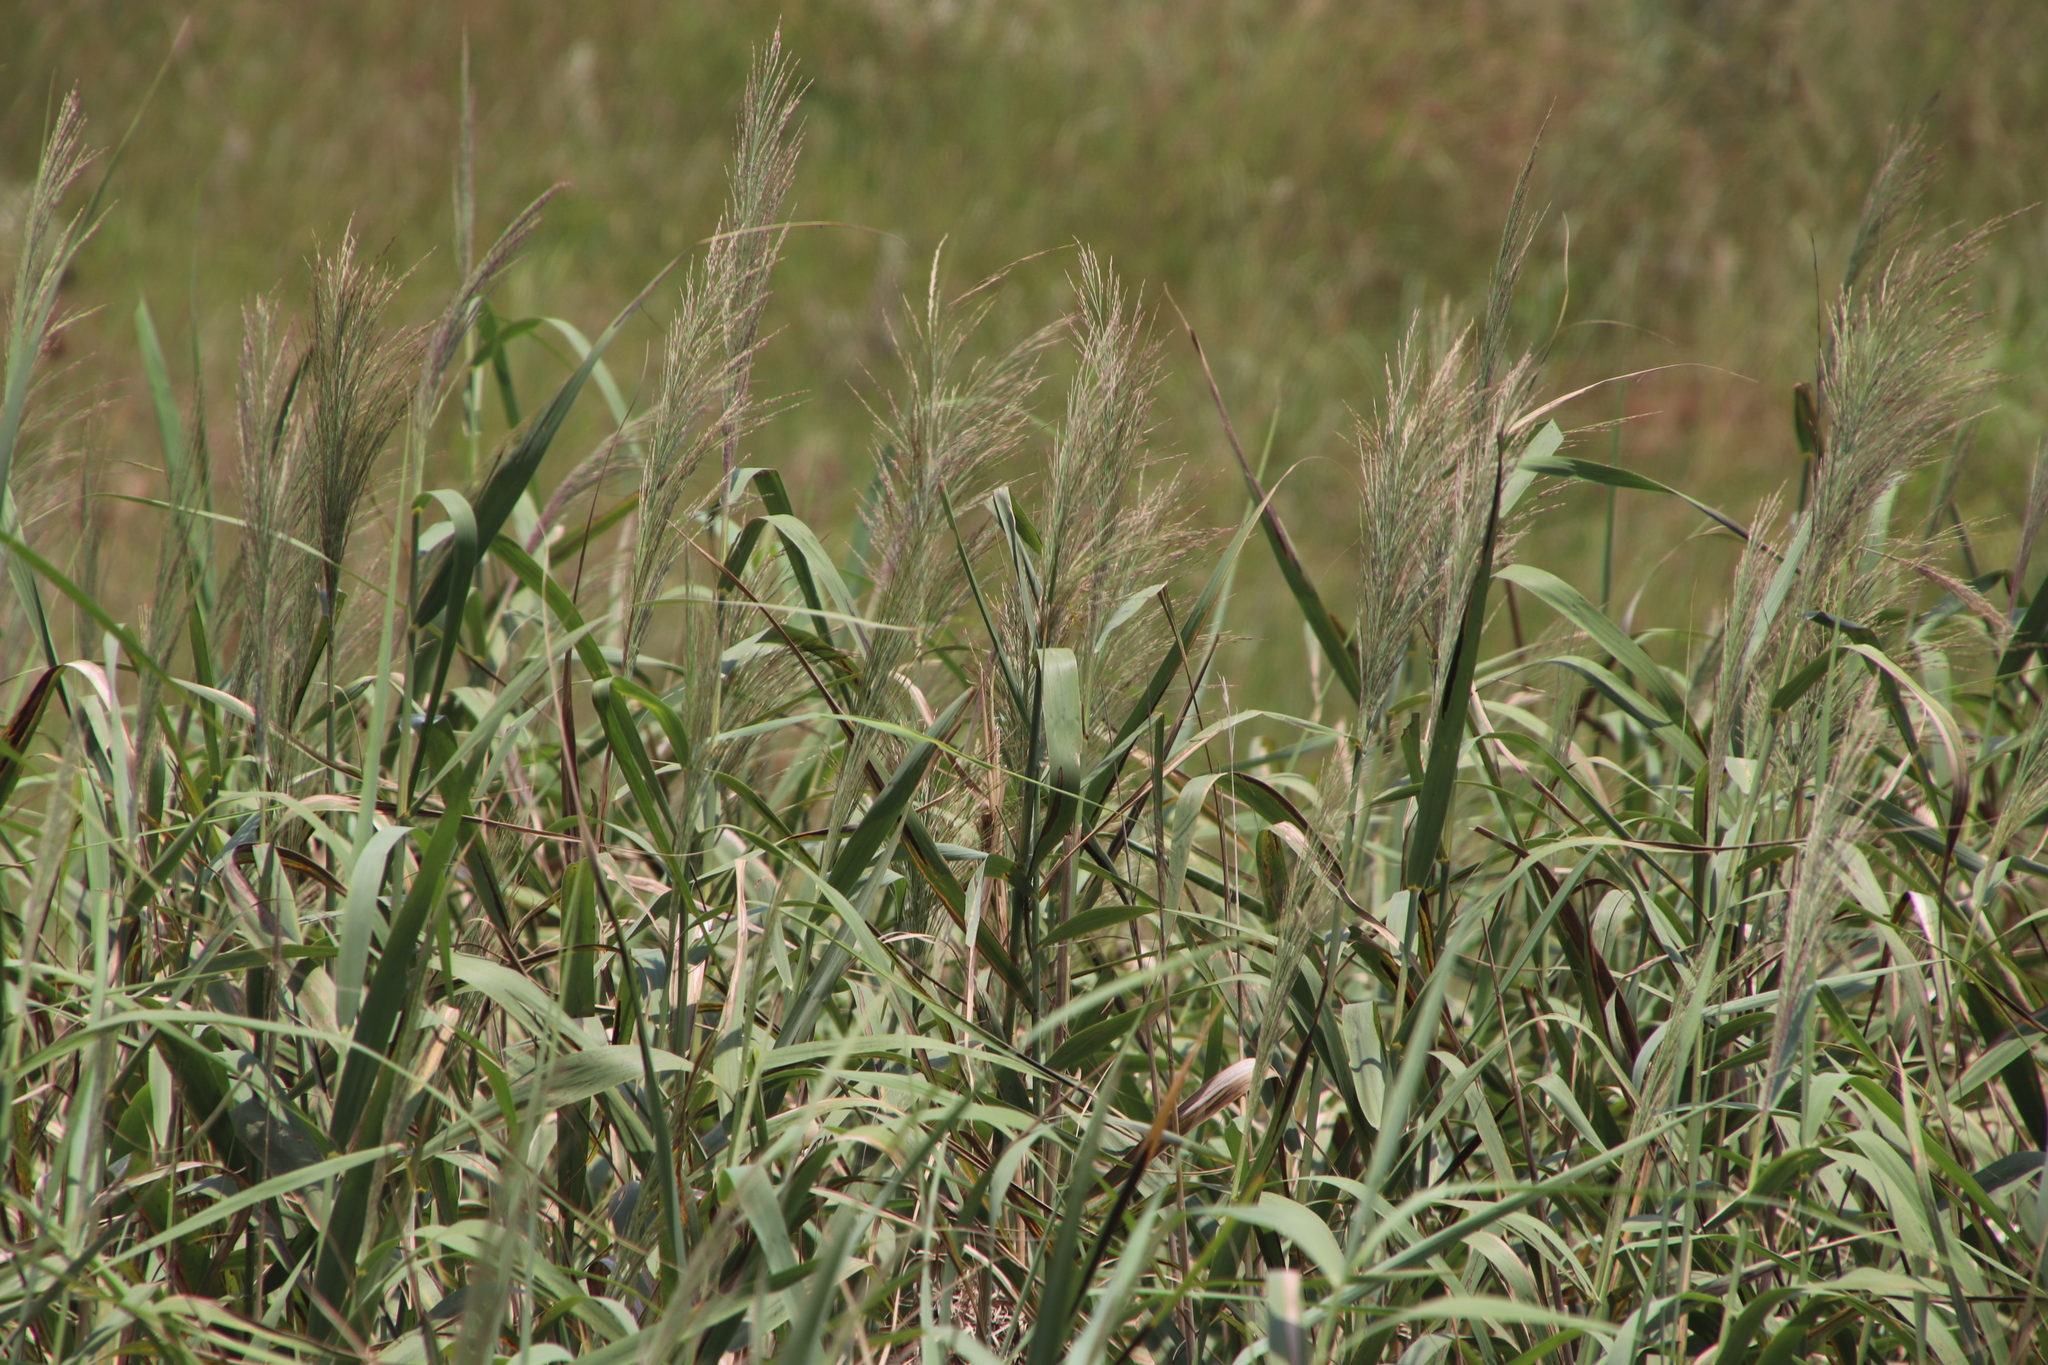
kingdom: Plantae
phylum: Tracheophyta
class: Liliopsida
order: Poales
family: Poaceae
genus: Phragmites
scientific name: Phragmites australis
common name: Common reed
